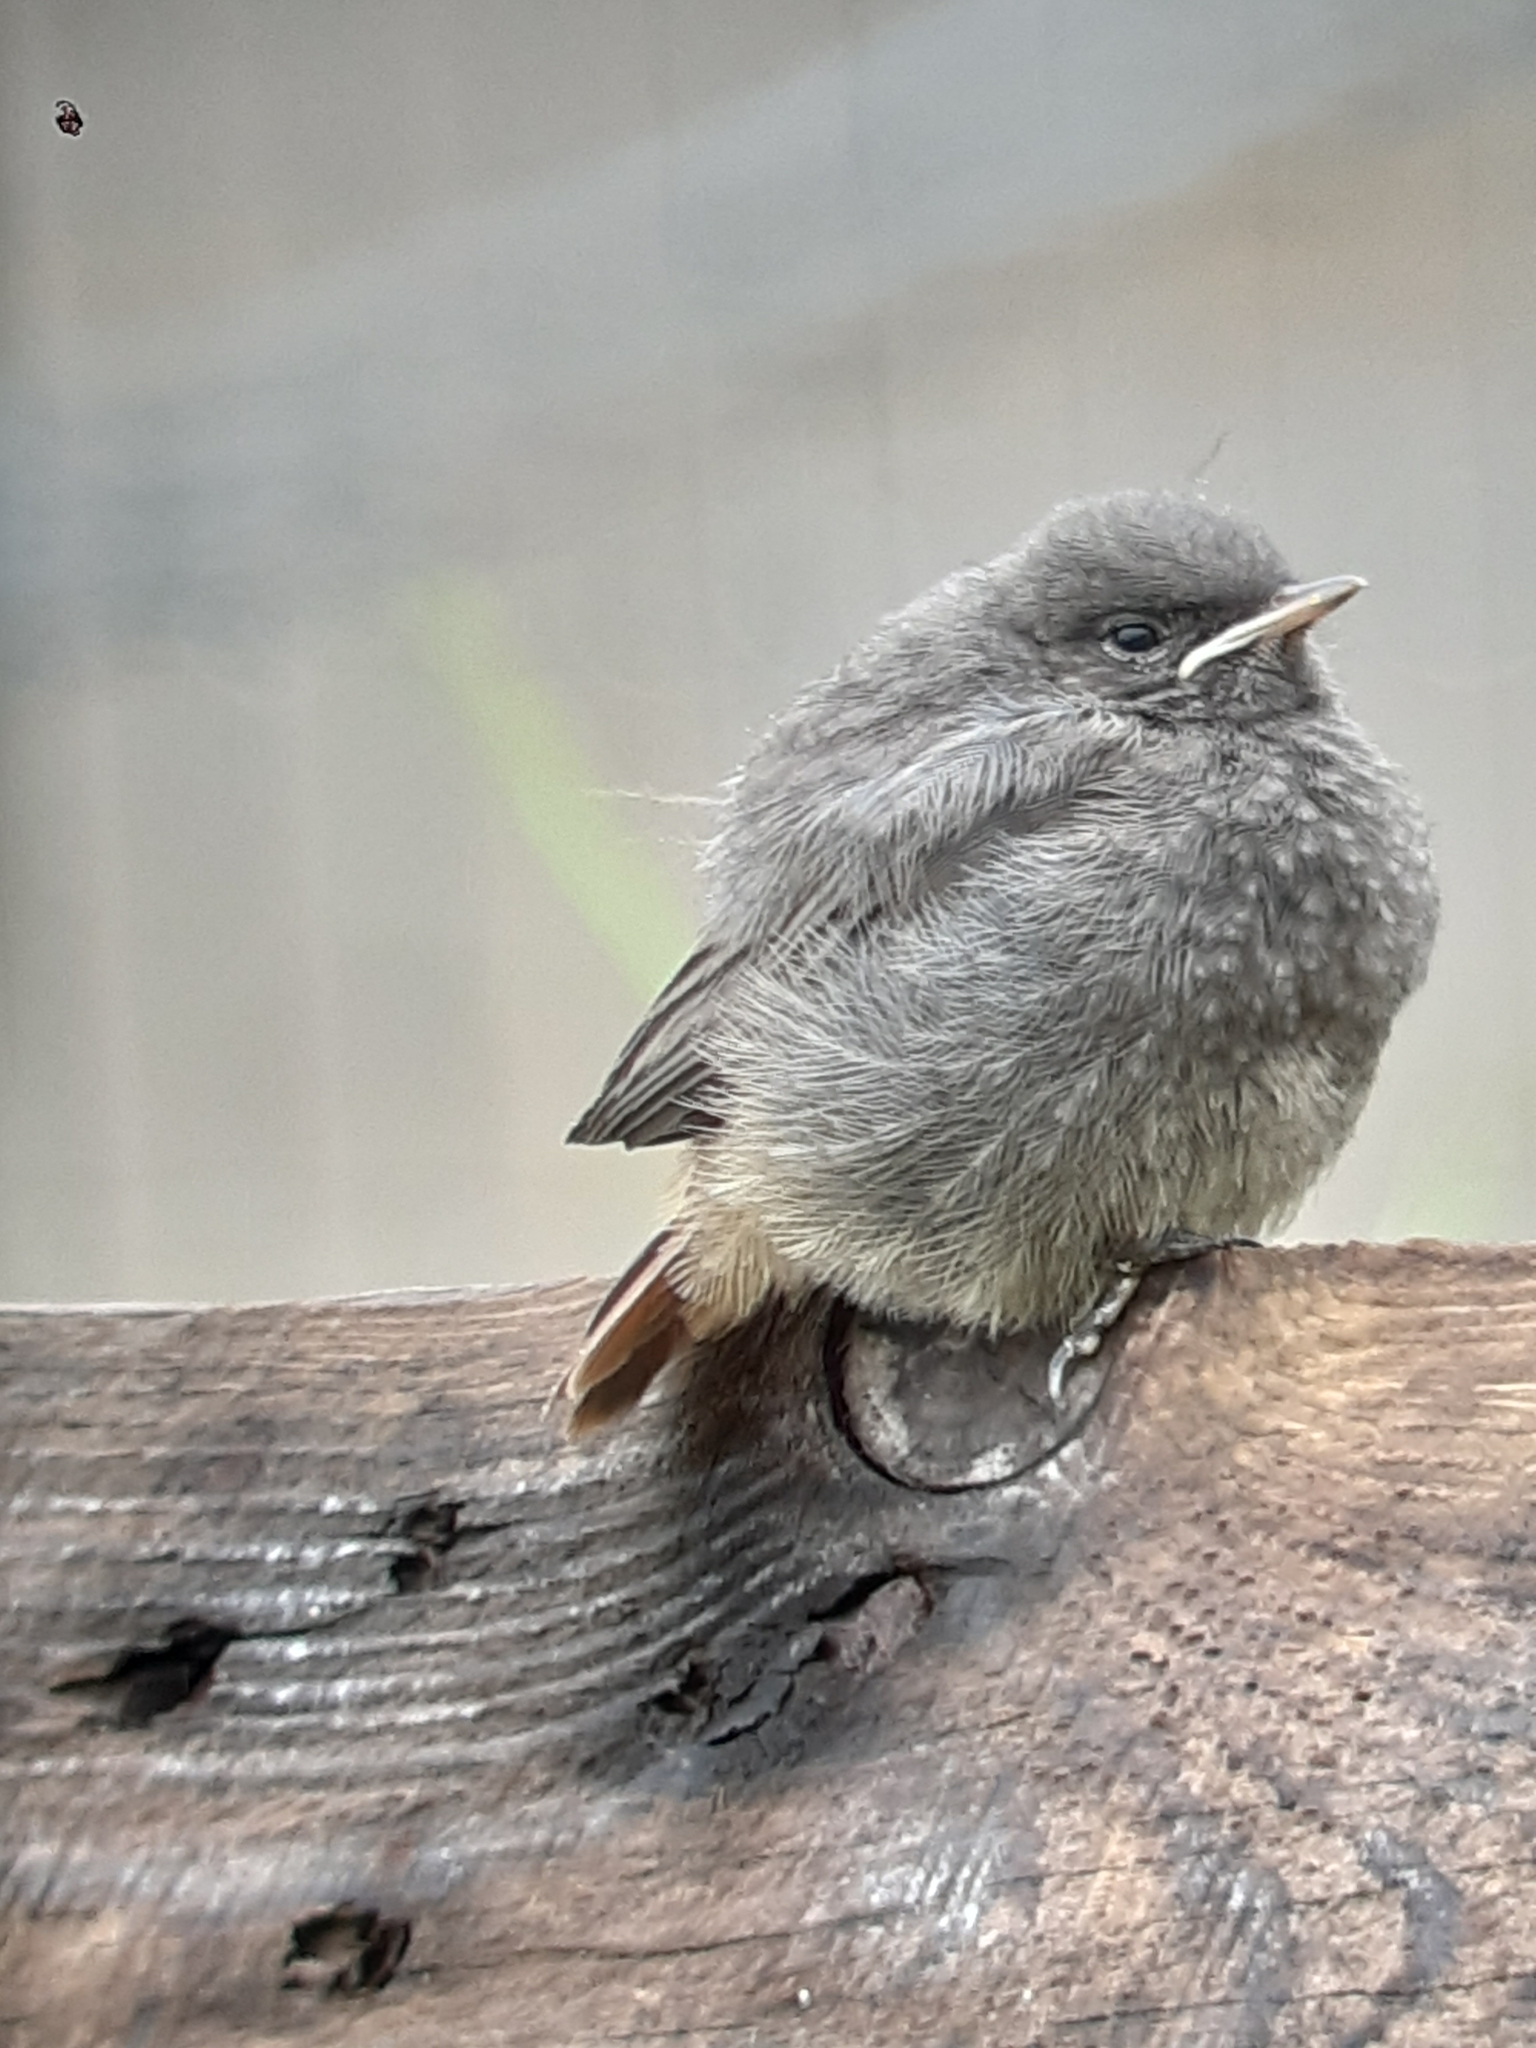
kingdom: Animalia
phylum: Chordata
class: Aves
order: Passeriformes
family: Muscicapidae
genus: Phoenicurus
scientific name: Phoenicurus ochruros
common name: Black redstart
